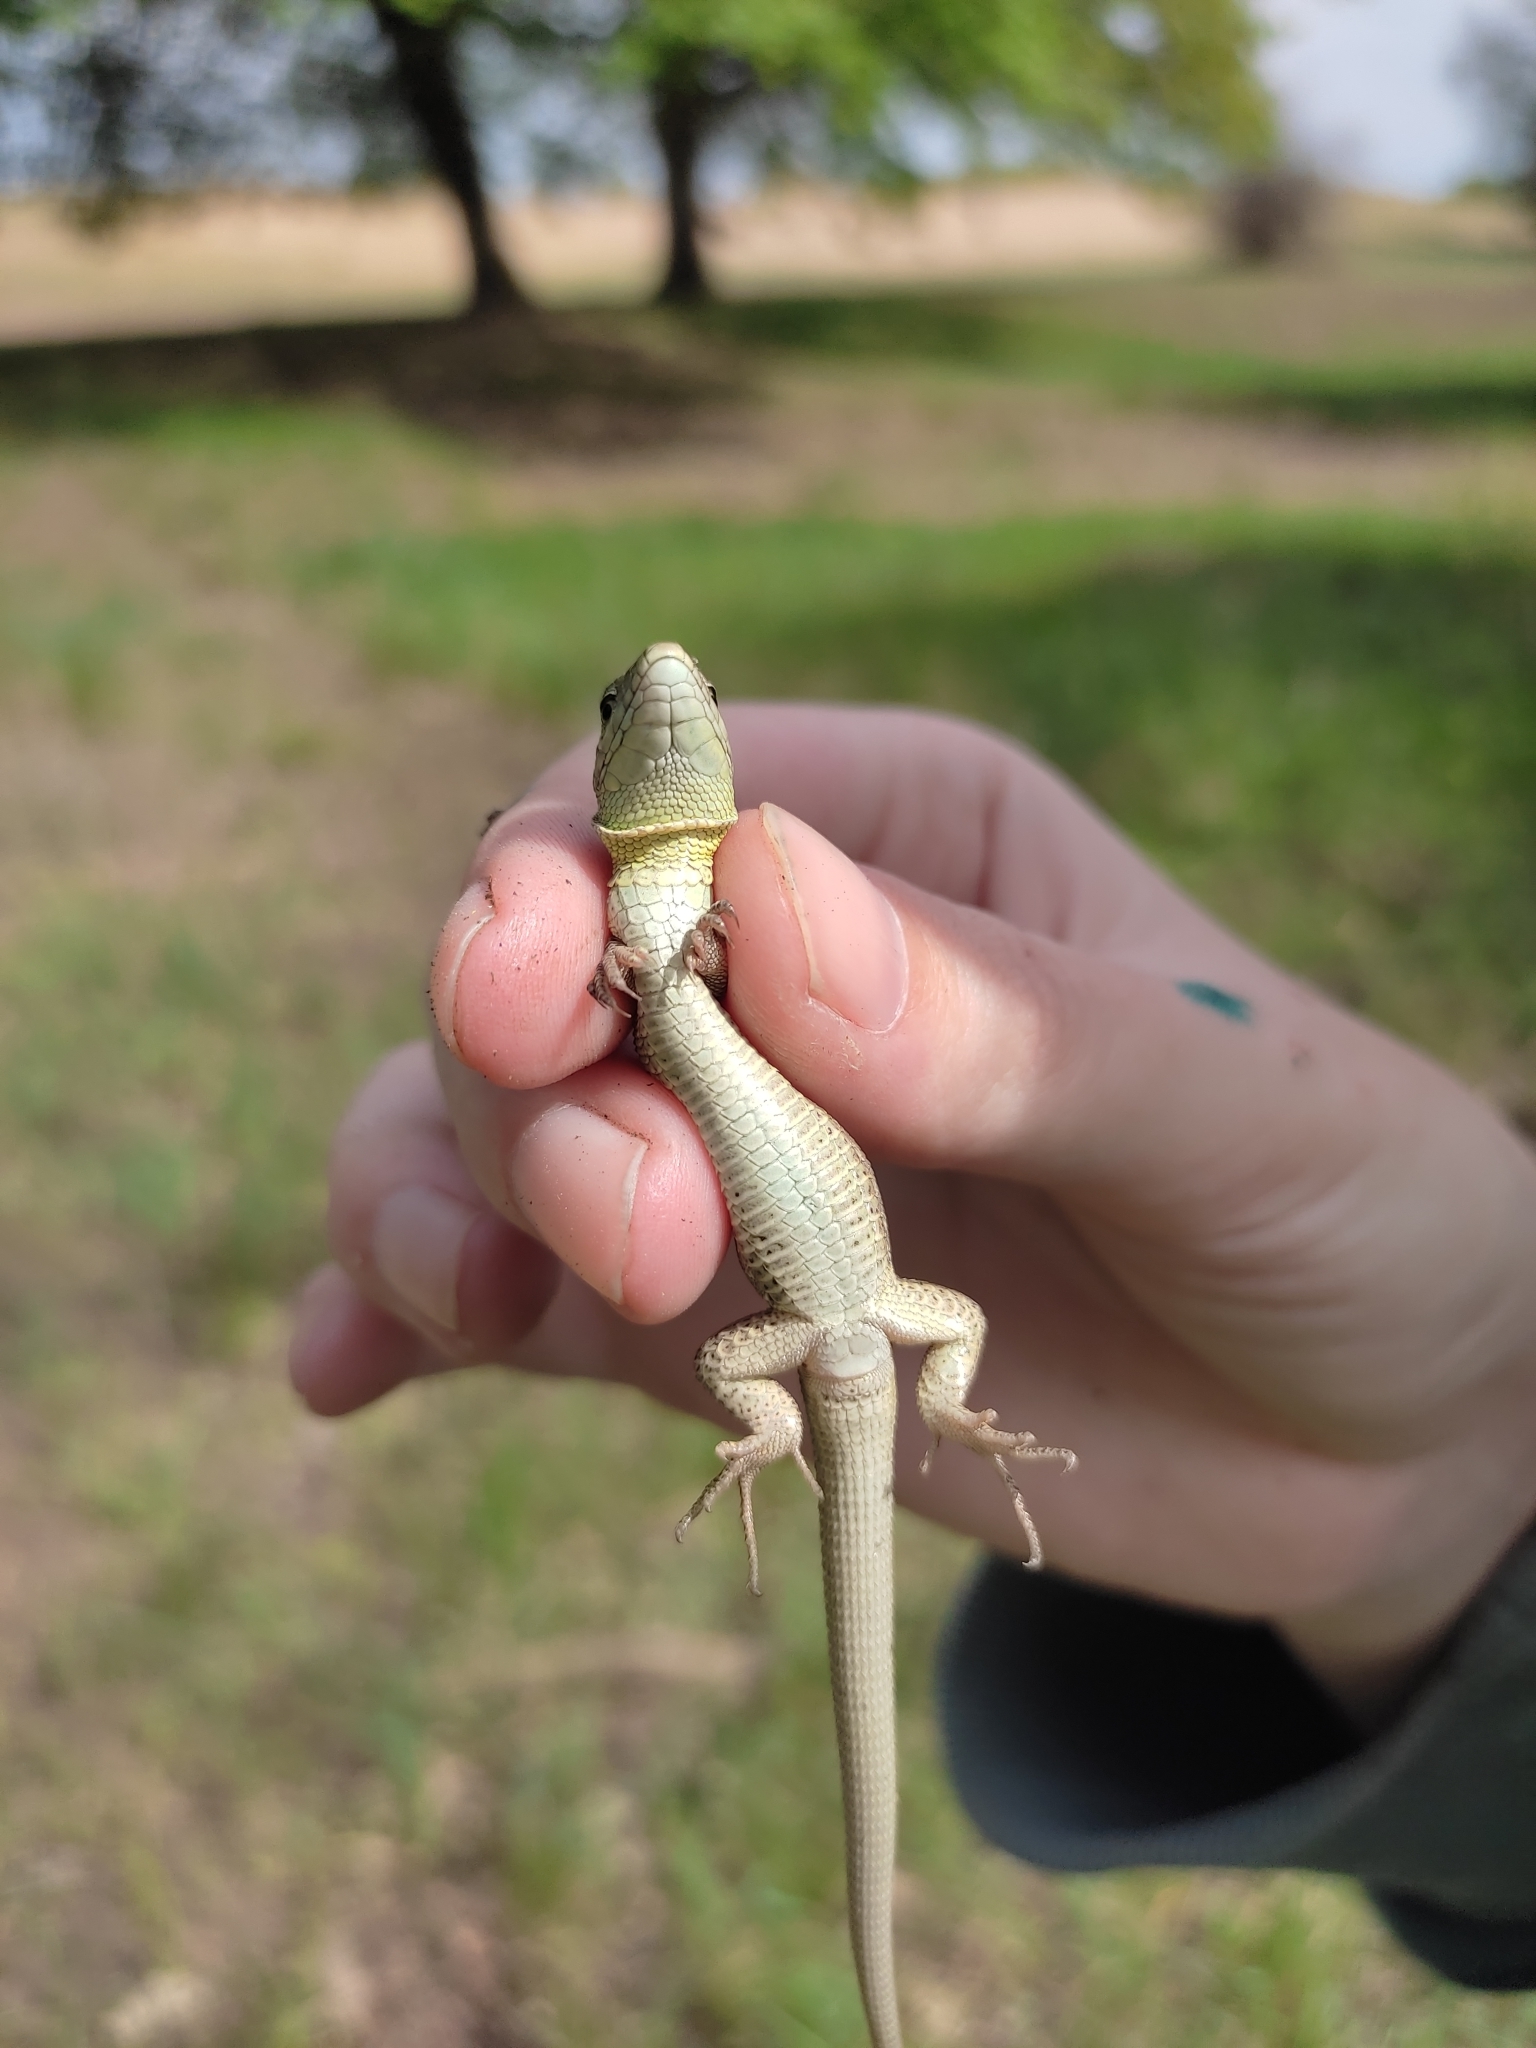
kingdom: Animalia
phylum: Chordata
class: Squamata
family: Lacertidae
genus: Lacerta
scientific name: Lacerta agilis
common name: Sand lizard
